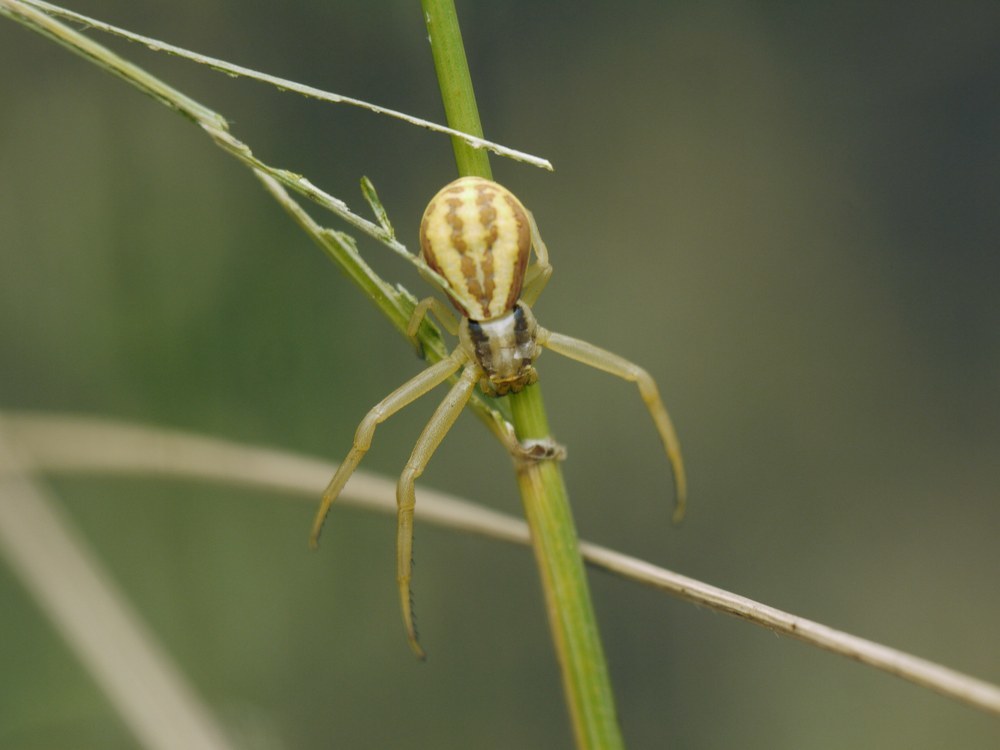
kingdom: Animalia
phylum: Arthropoda
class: Arachnida
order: Araneae
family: Thomisidae
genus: Runcinia
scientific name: Runcinia grammica
